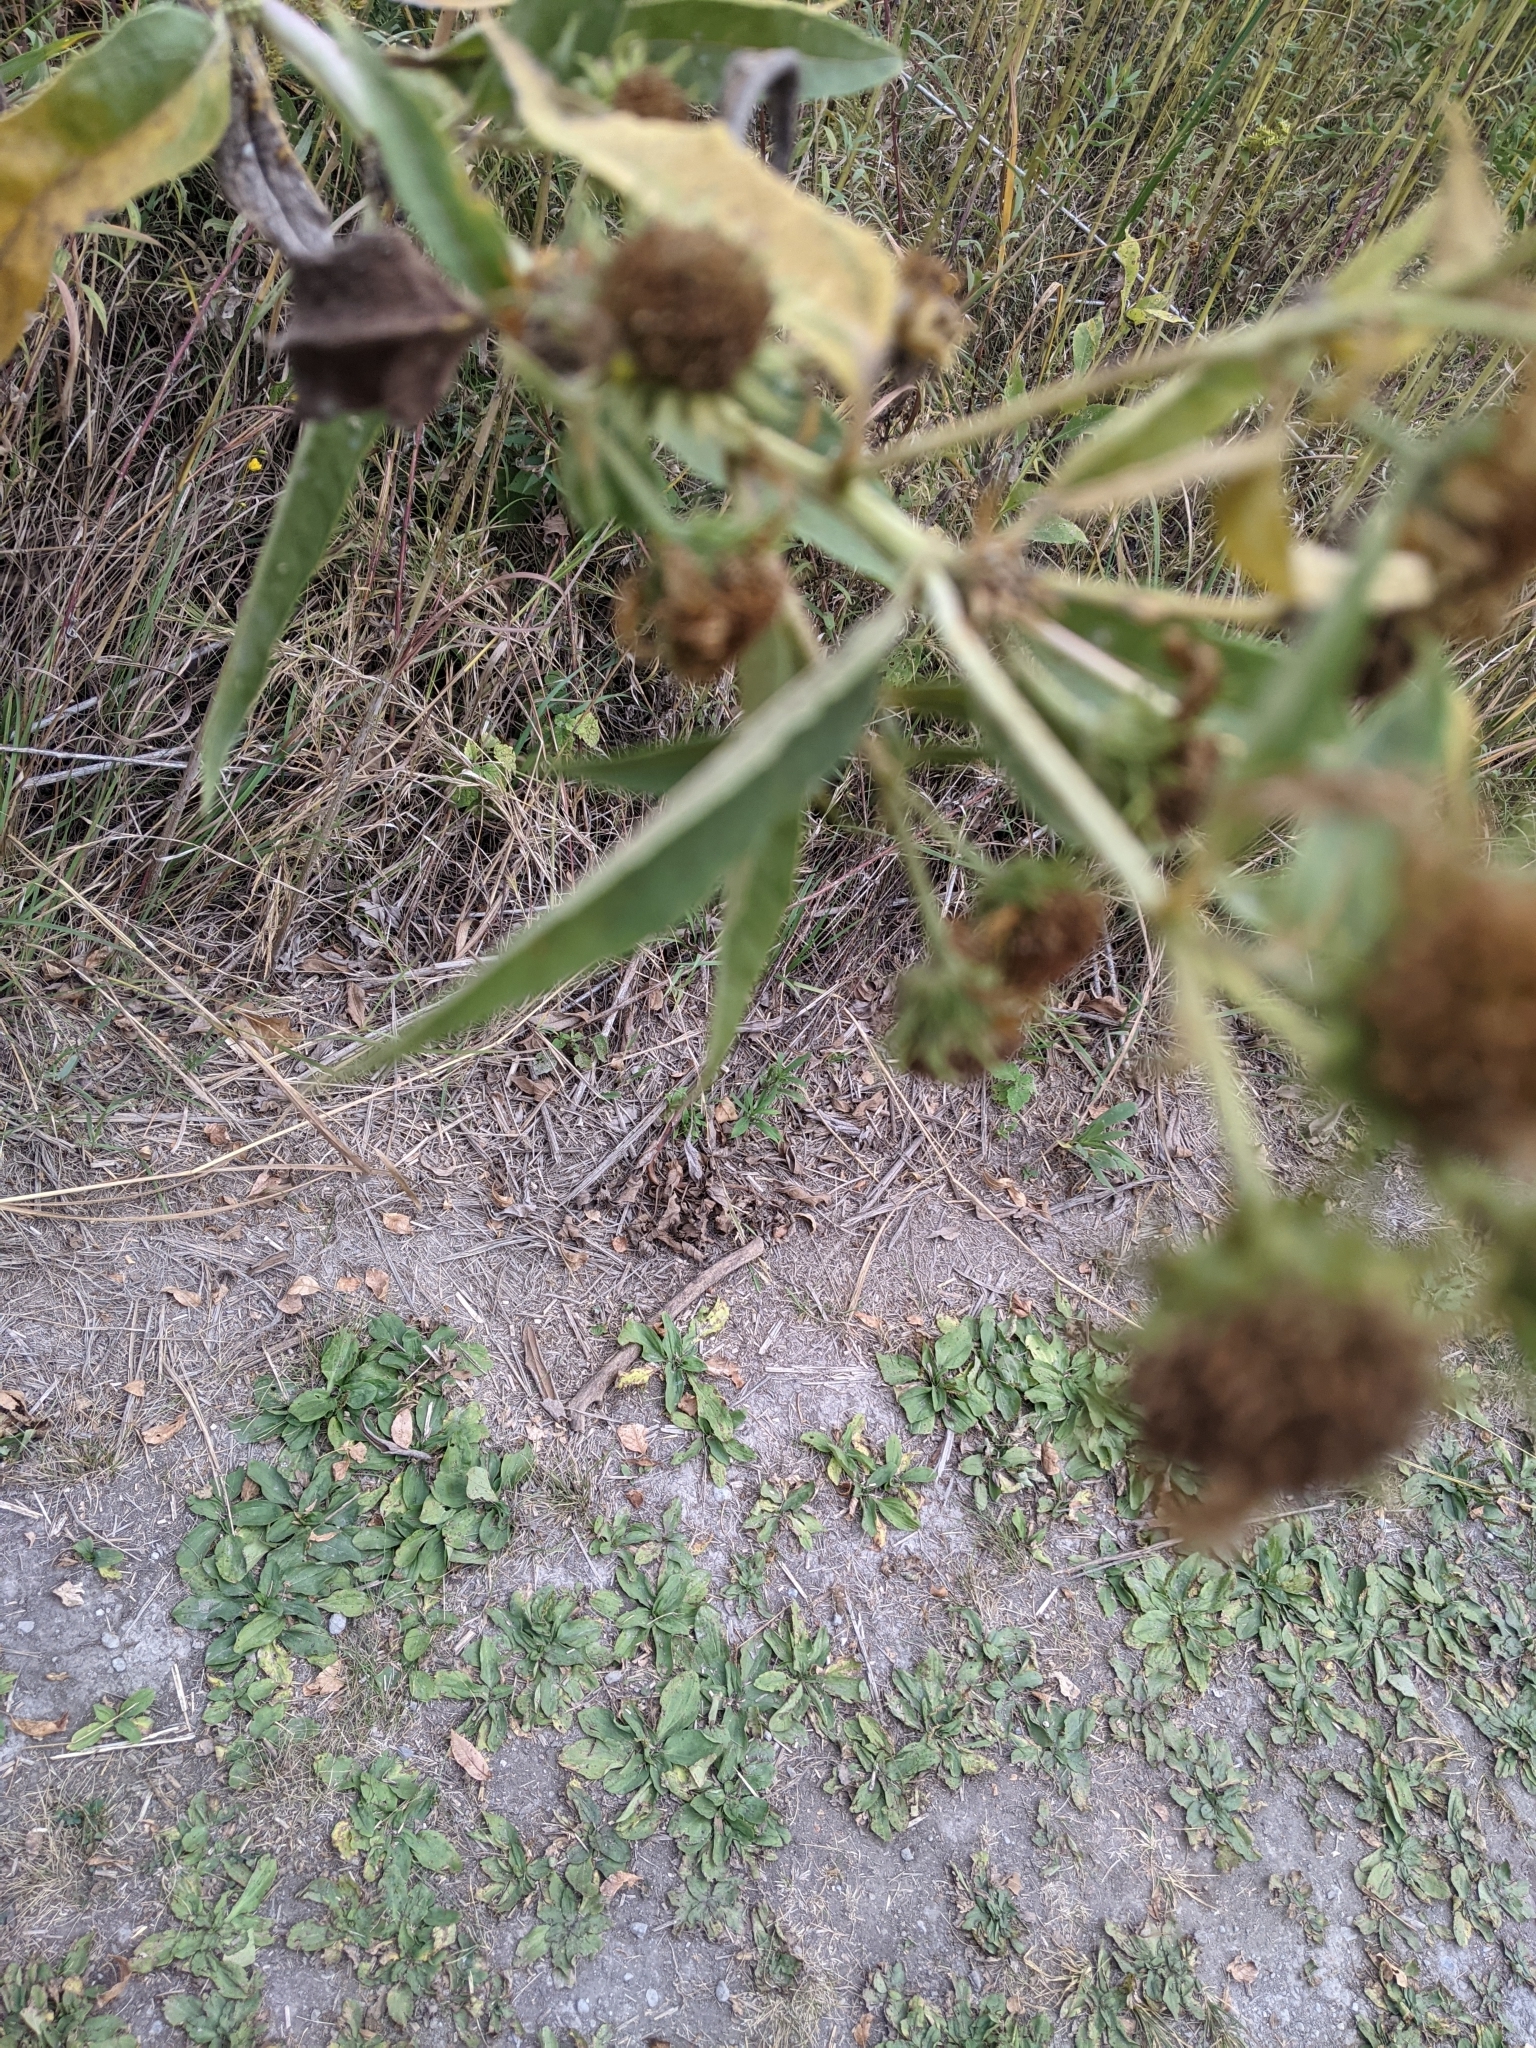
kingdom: Plantae
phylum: Tracheophyta
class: Magnoliopsida
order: Asterales
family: Asteraceae
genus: Helianthus
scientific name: Helianthus maximiliani
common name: Maximilian's sunflower
